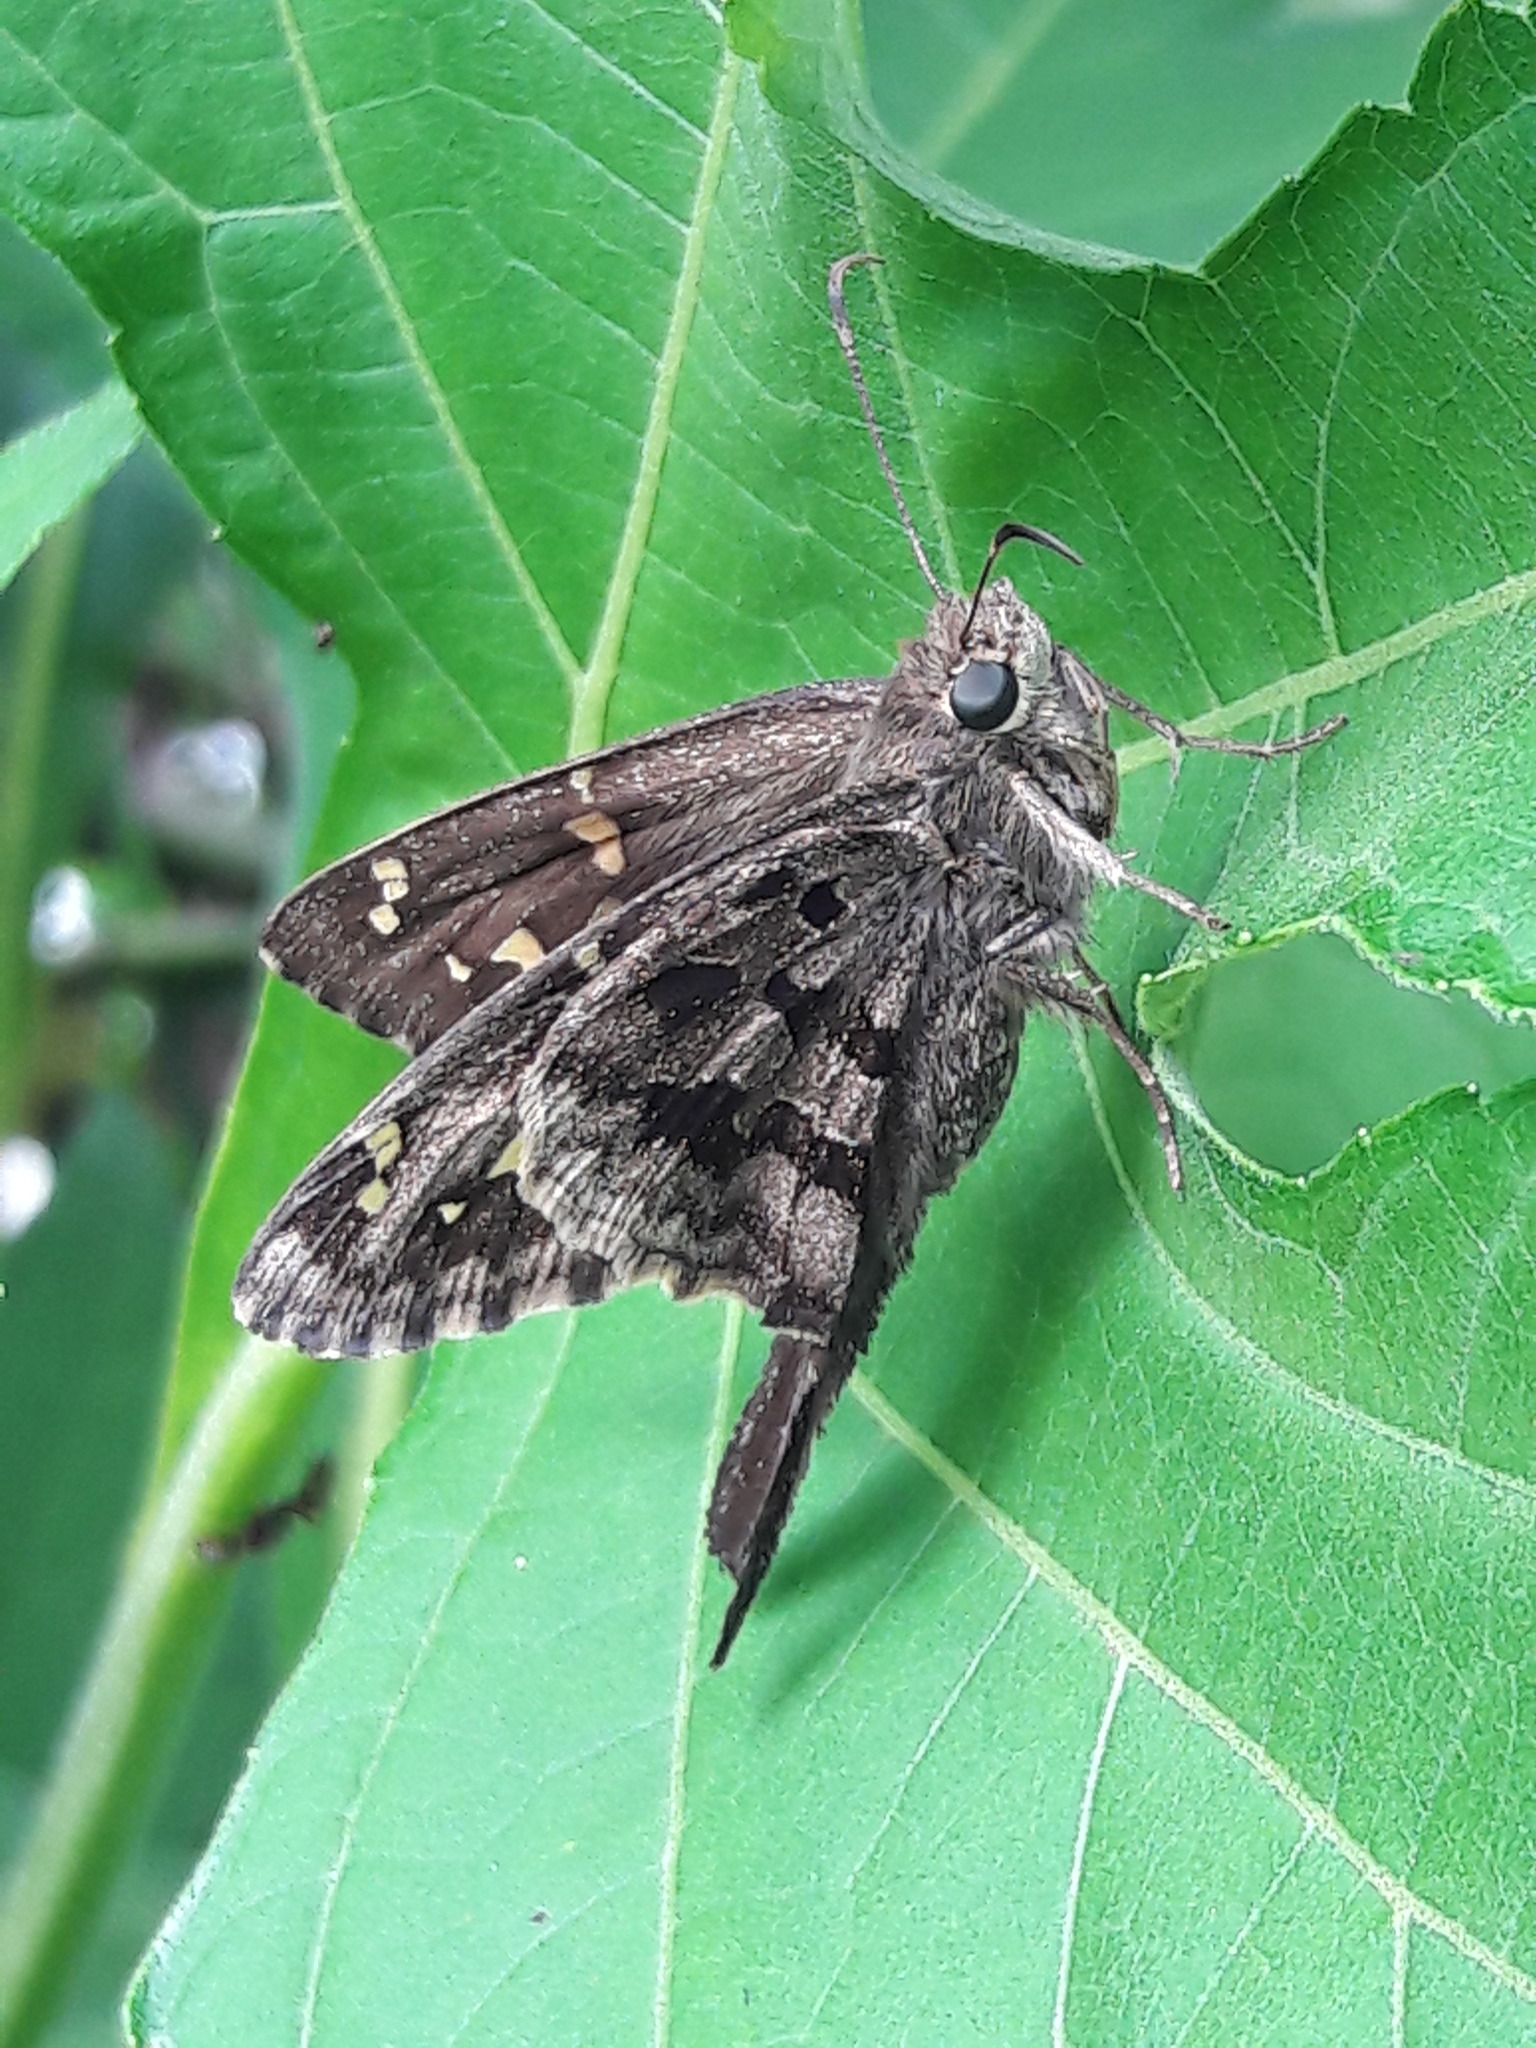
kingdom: Animalia
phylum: Arthropoda
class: Insecta
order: Lepidoptera
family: Hesperiidae
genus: Thorybes
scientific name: Thorybes
